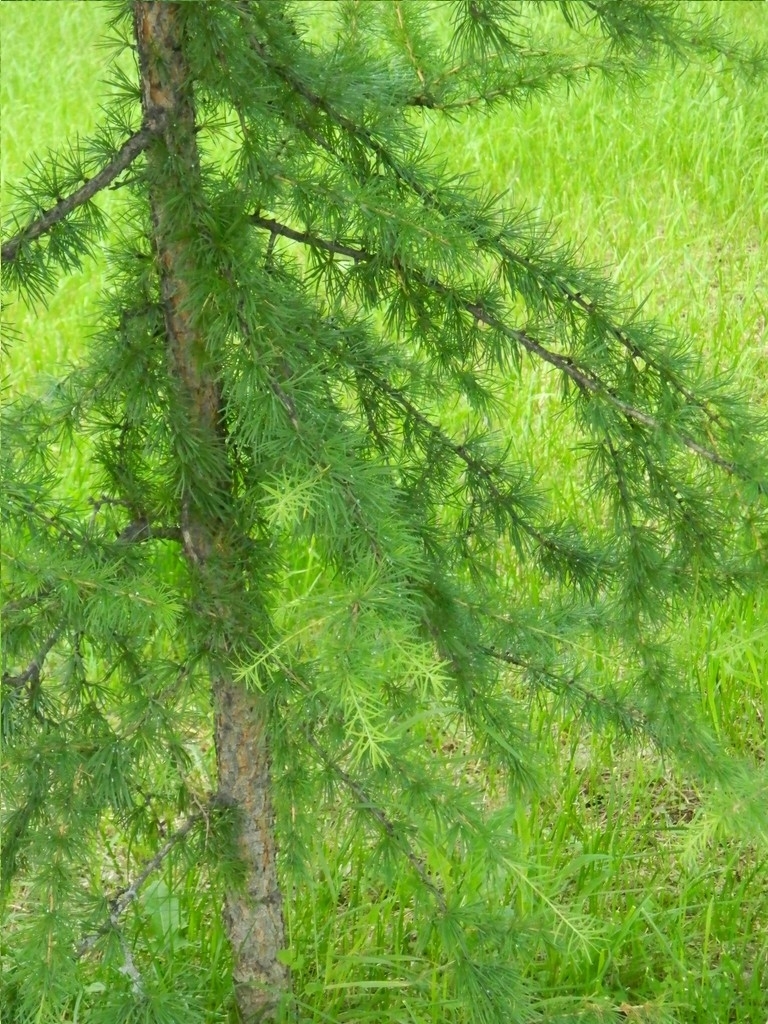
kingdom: Plantae
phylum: Tracheophyta
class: Pinopsida
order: Pinales
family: Pinaceae
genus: Larix
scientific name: Larix sibirica
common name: Siberian larch
